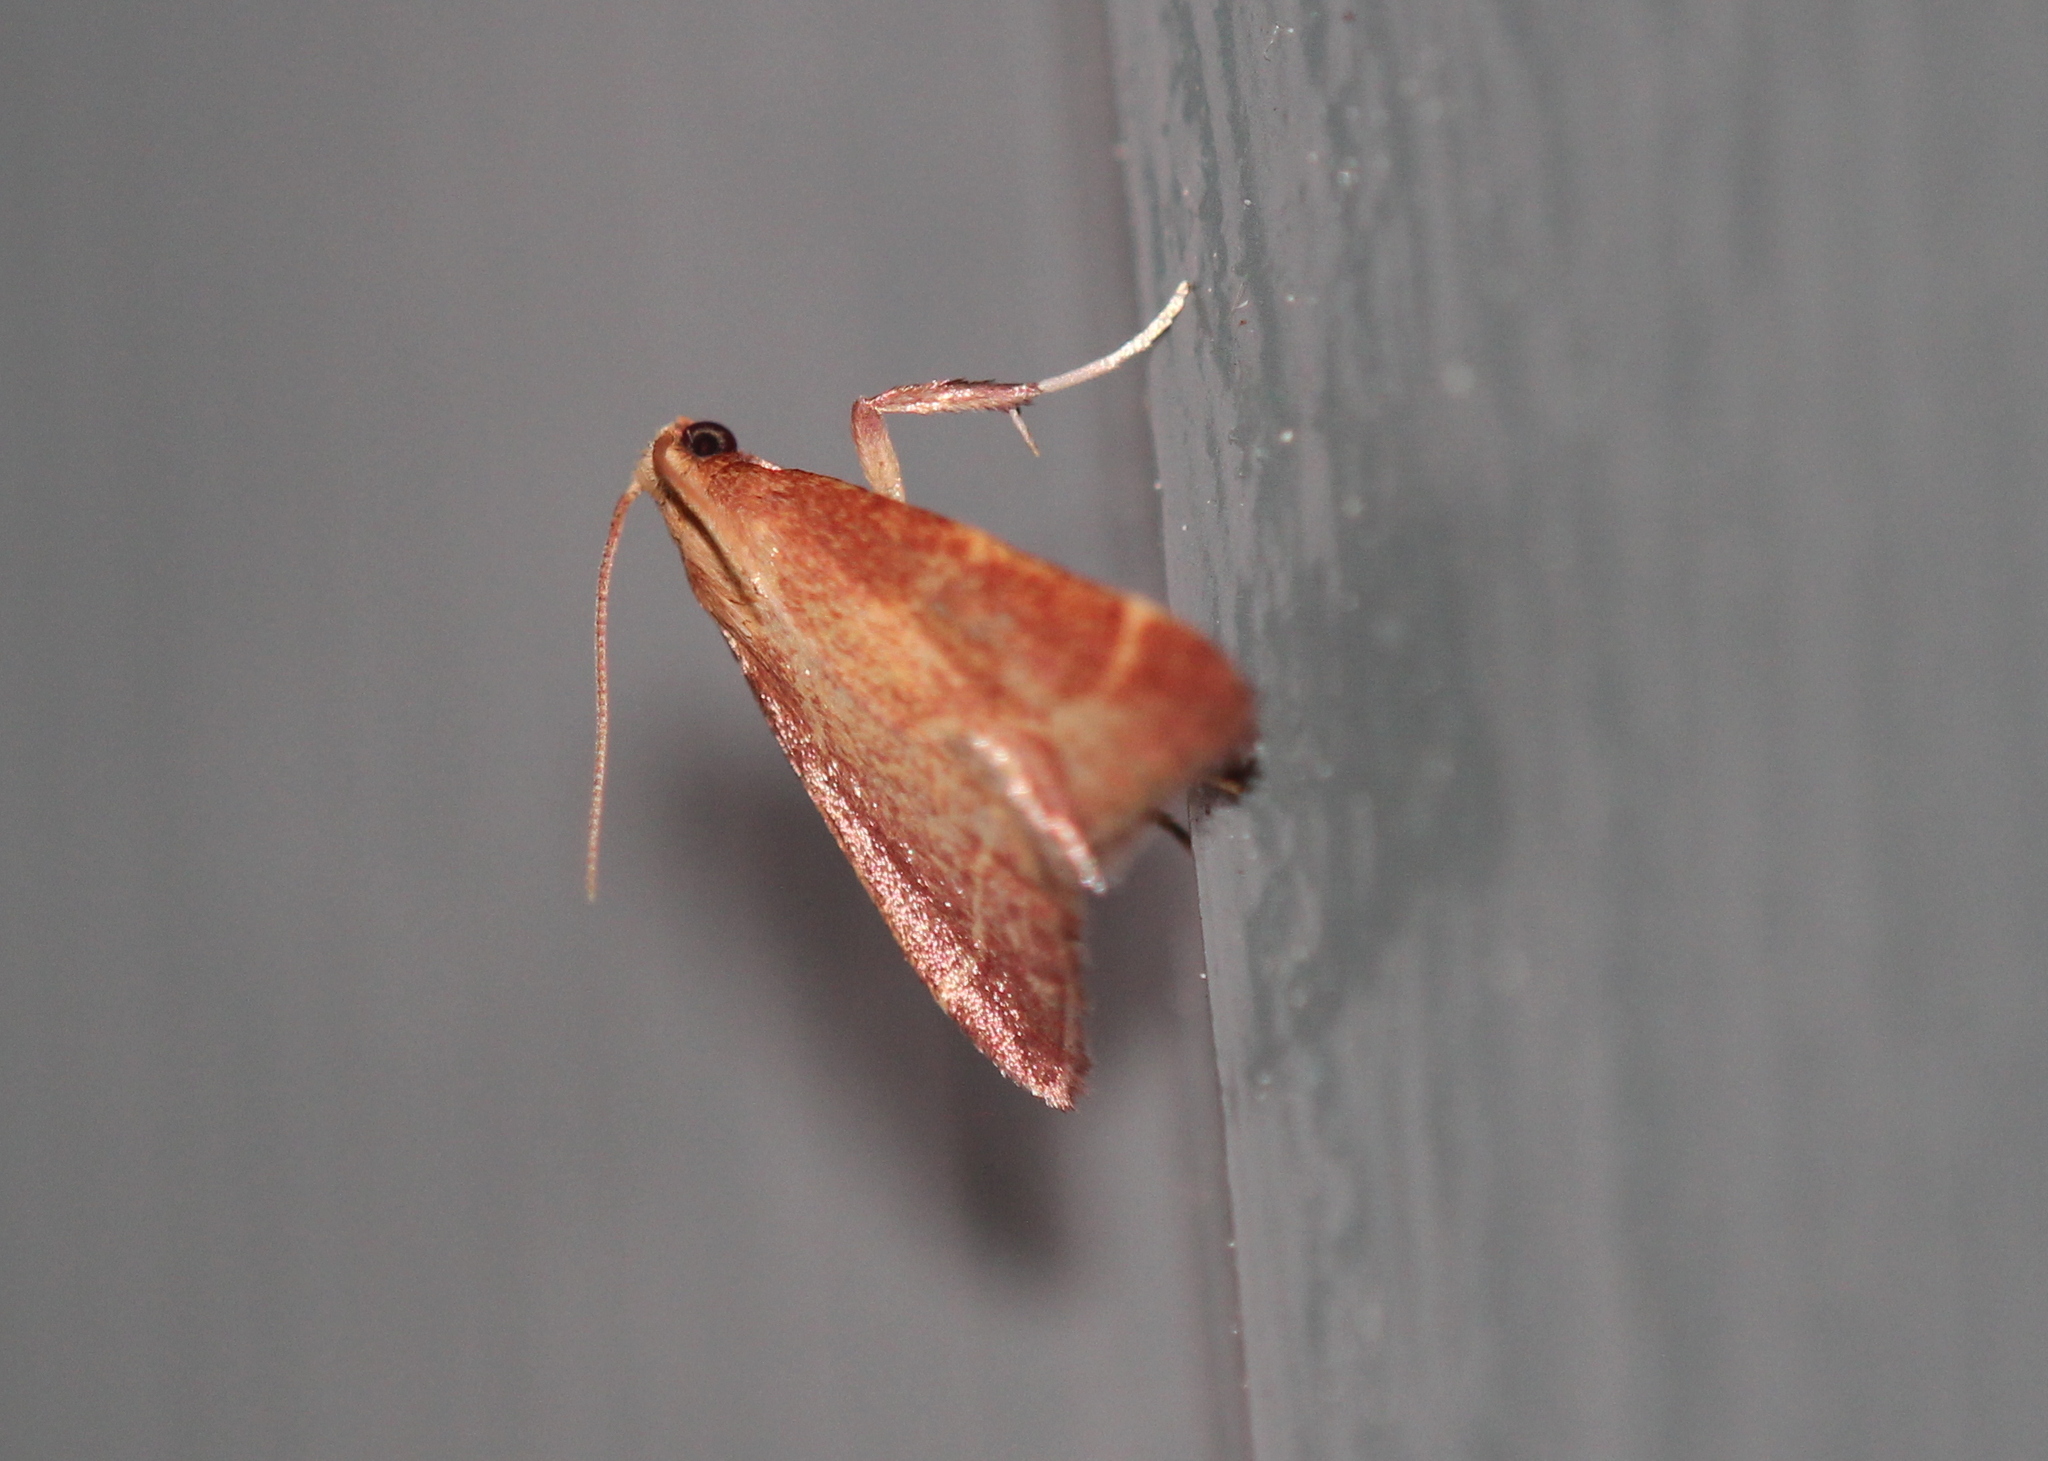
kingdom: Animalia
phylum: Arthropoda
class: Insecta
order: Lepidoptera
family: Pyralidae
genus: Arta
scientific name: Arta statalis
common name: Posturing arta moth
